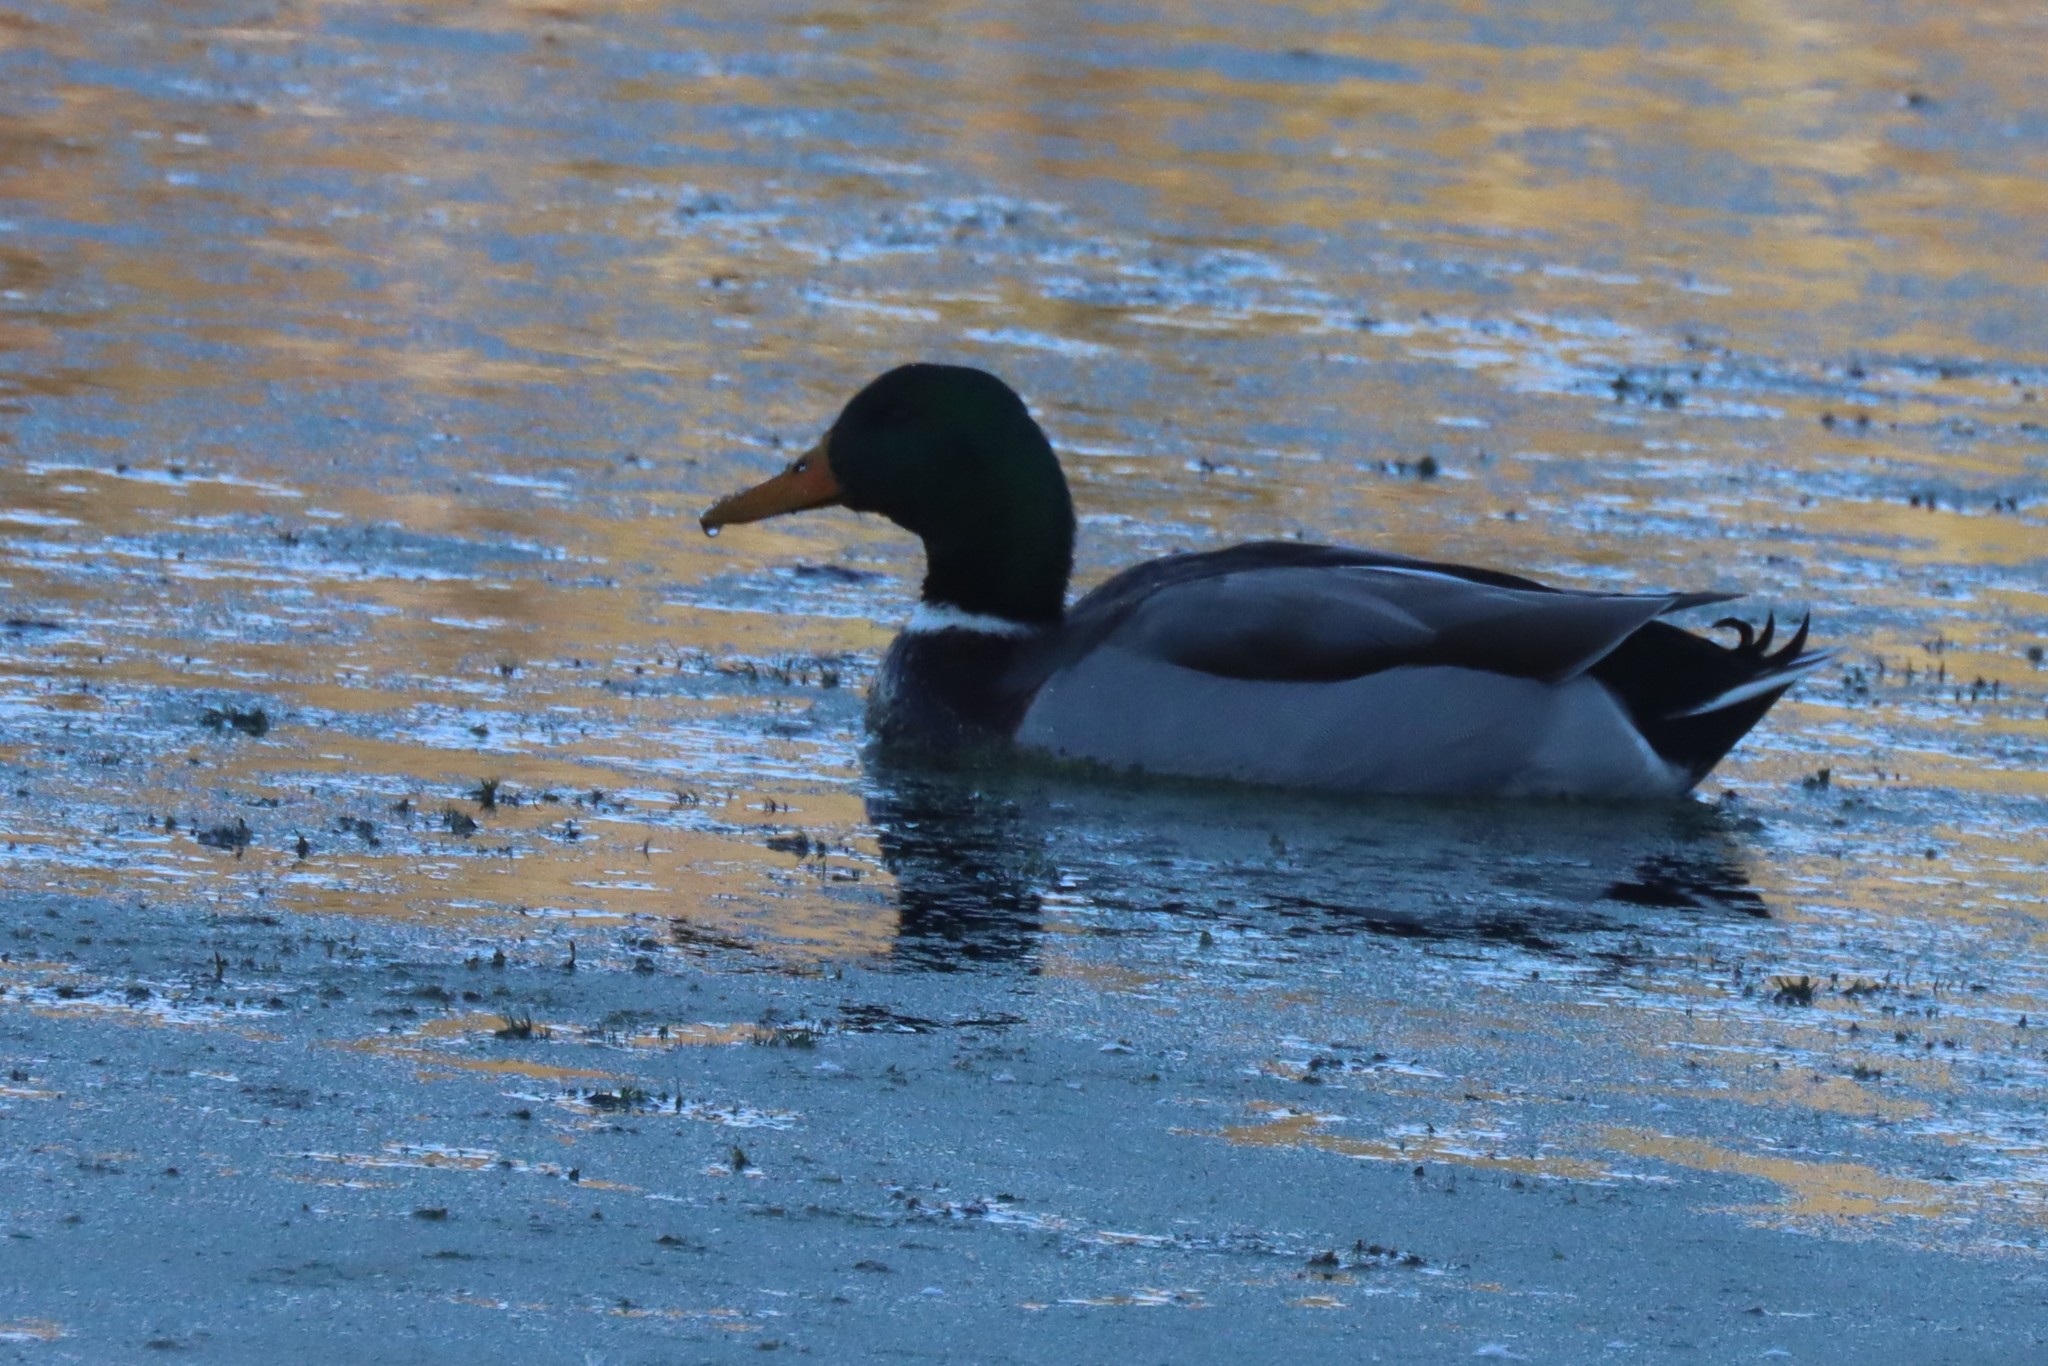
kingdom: Animalia
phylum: Chordata
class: Aves
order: Anseriformes
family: Anatidae
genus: Anas
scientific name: Anas platyrhynchos
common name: Mallard
